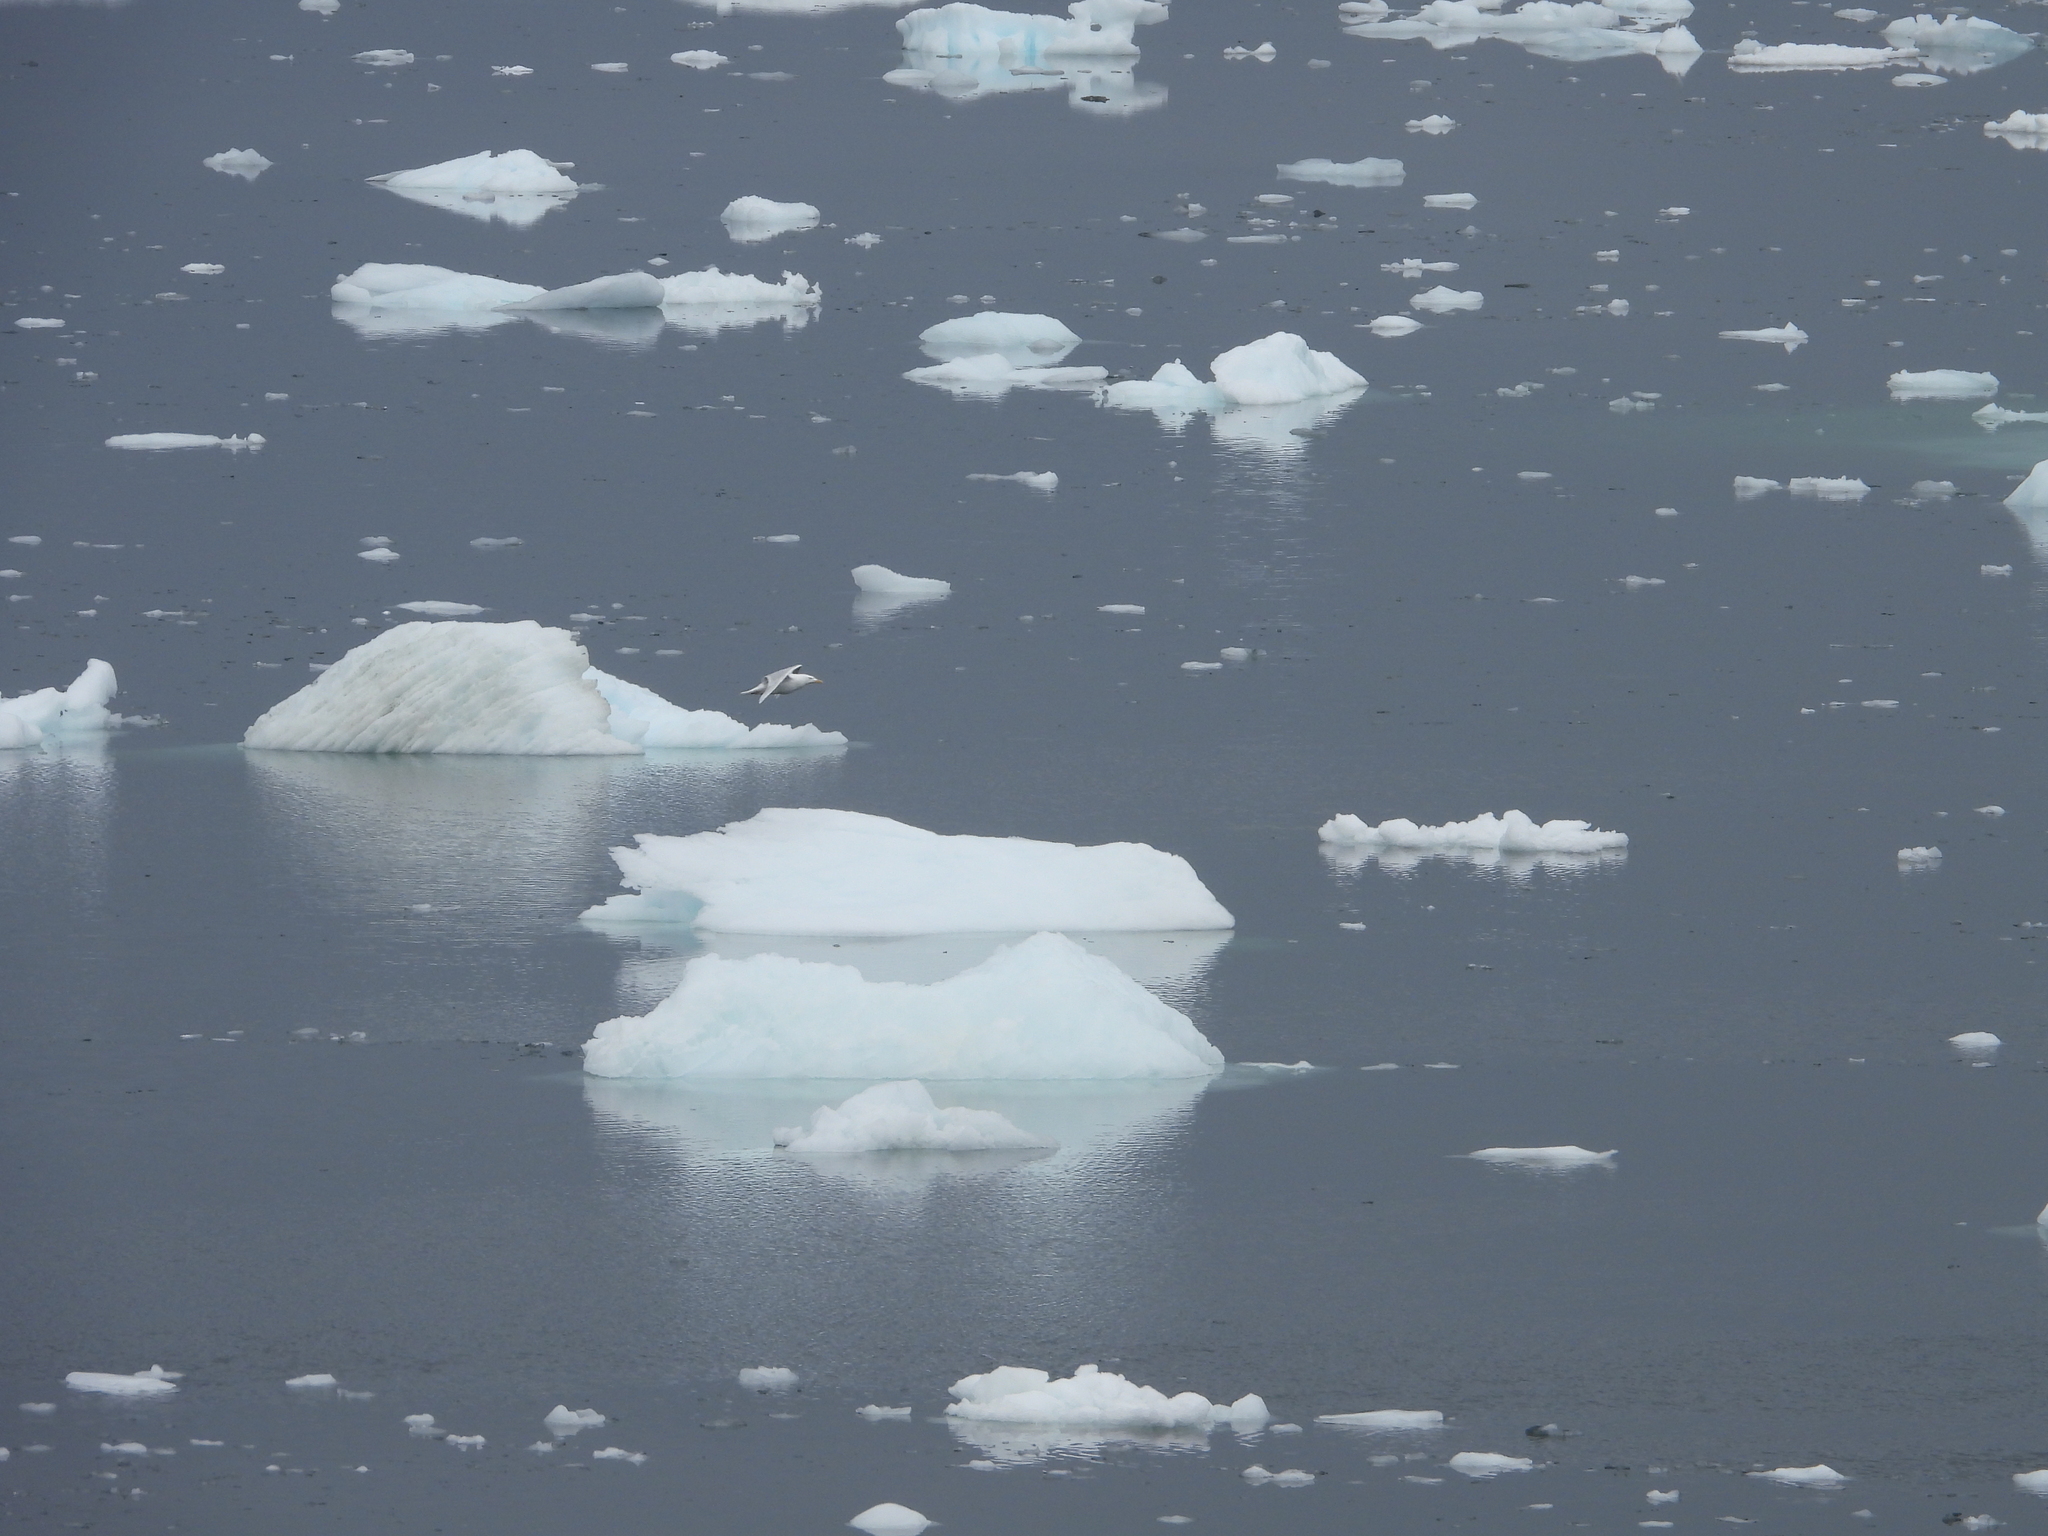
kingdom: Animalia
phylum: Chordata
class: Aves
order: Charadriiformes
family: Laridae
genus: Larus
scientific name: Larus hyperboreus
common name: Glaucous gull
